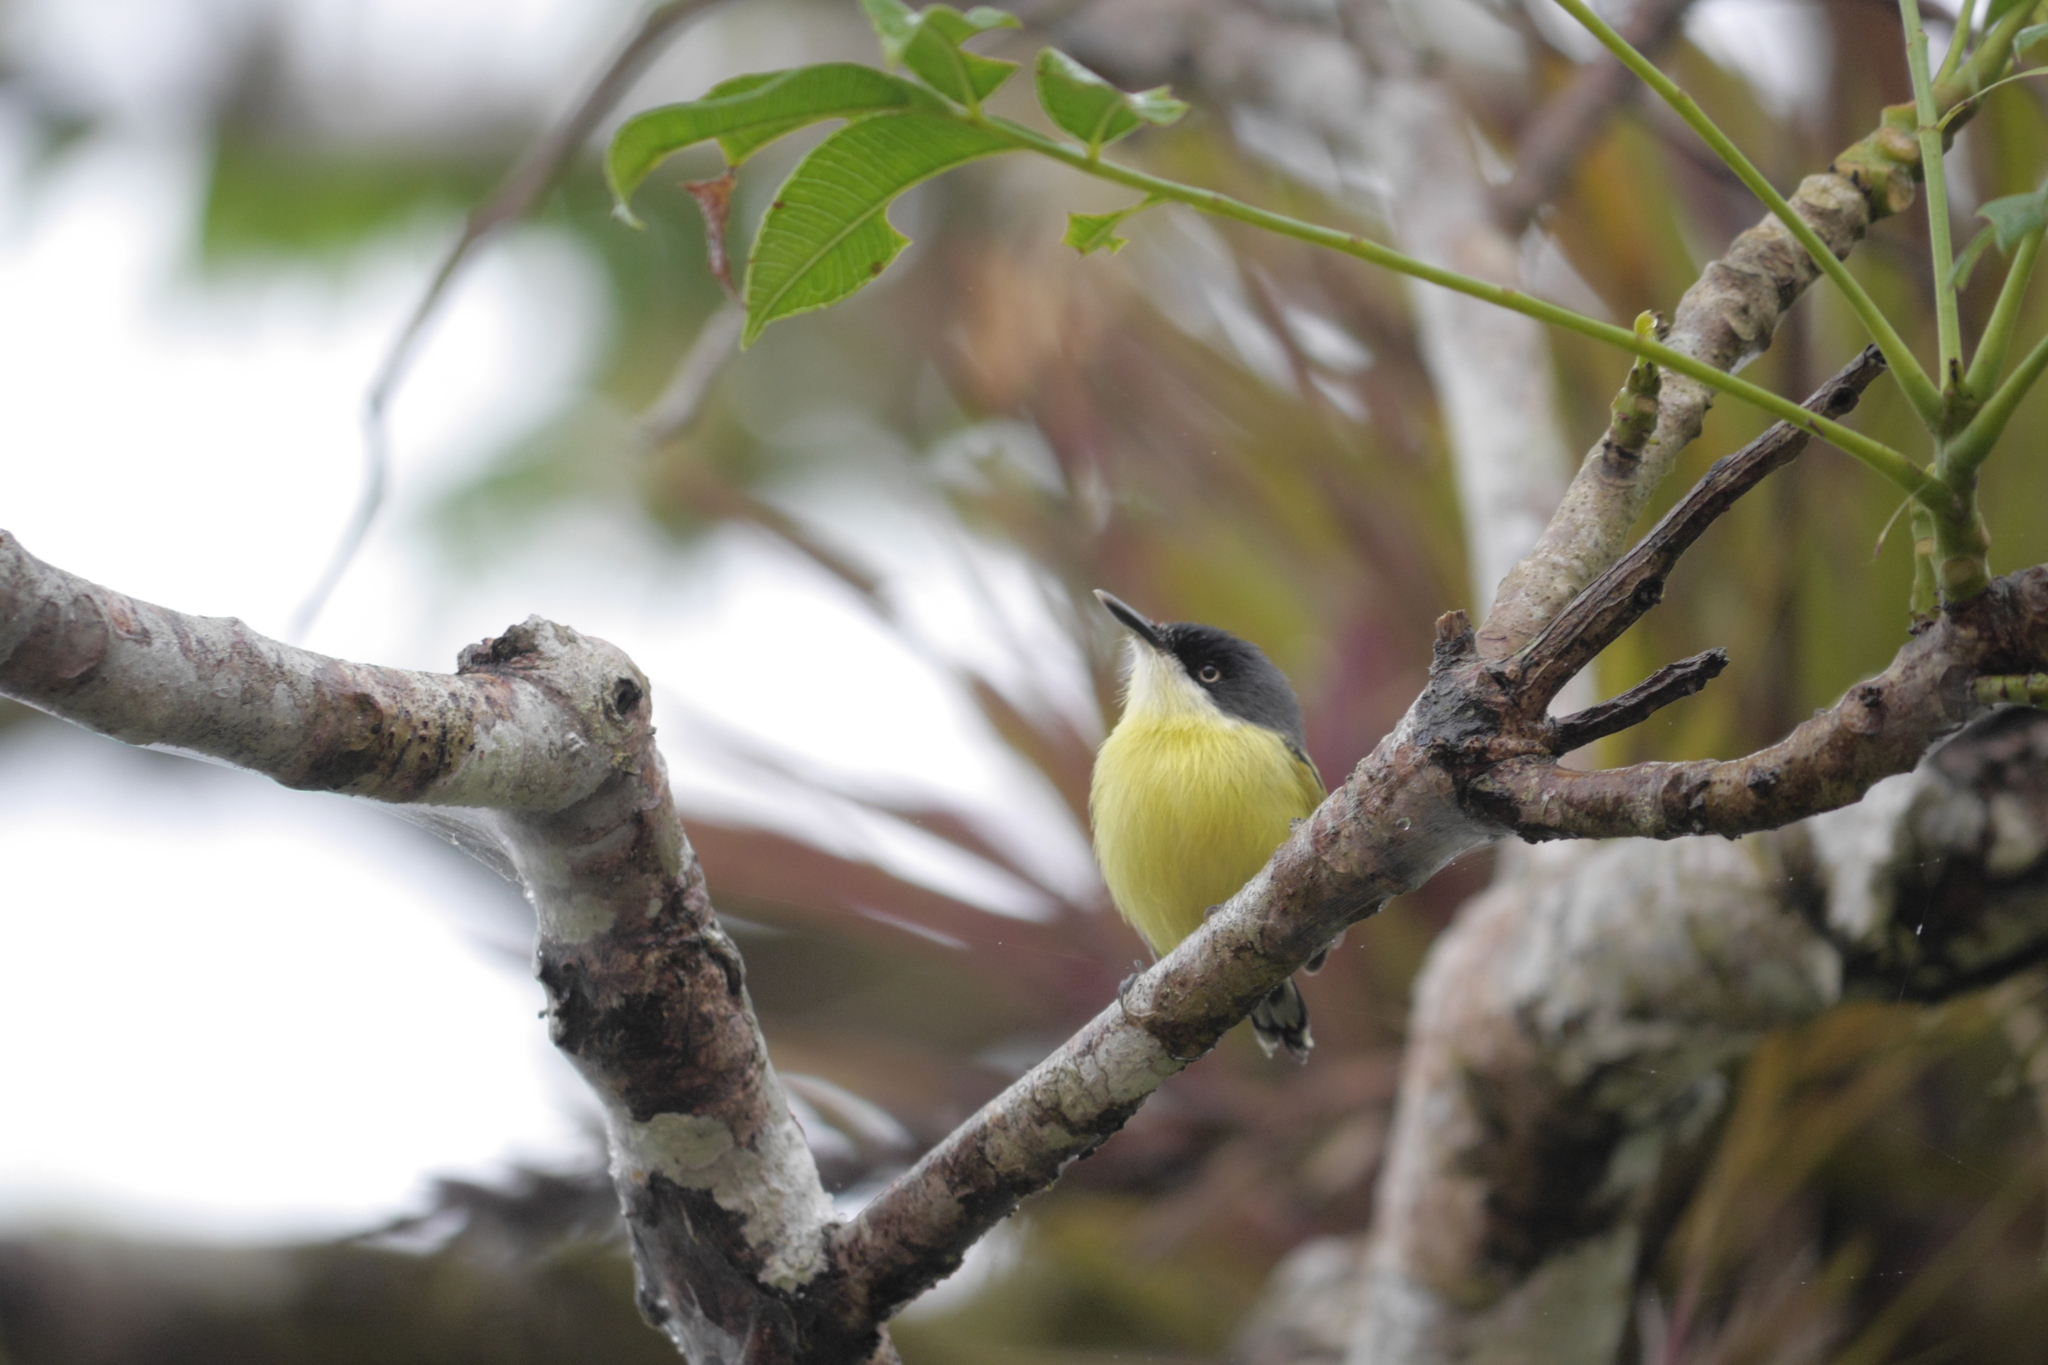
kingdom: Animalia
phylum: Chordata
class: Aves
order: Passeriformes
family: Tyrannidae
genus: Todirostrum
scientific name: Todirostrum cinereum
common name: Common tody-flycatcher
